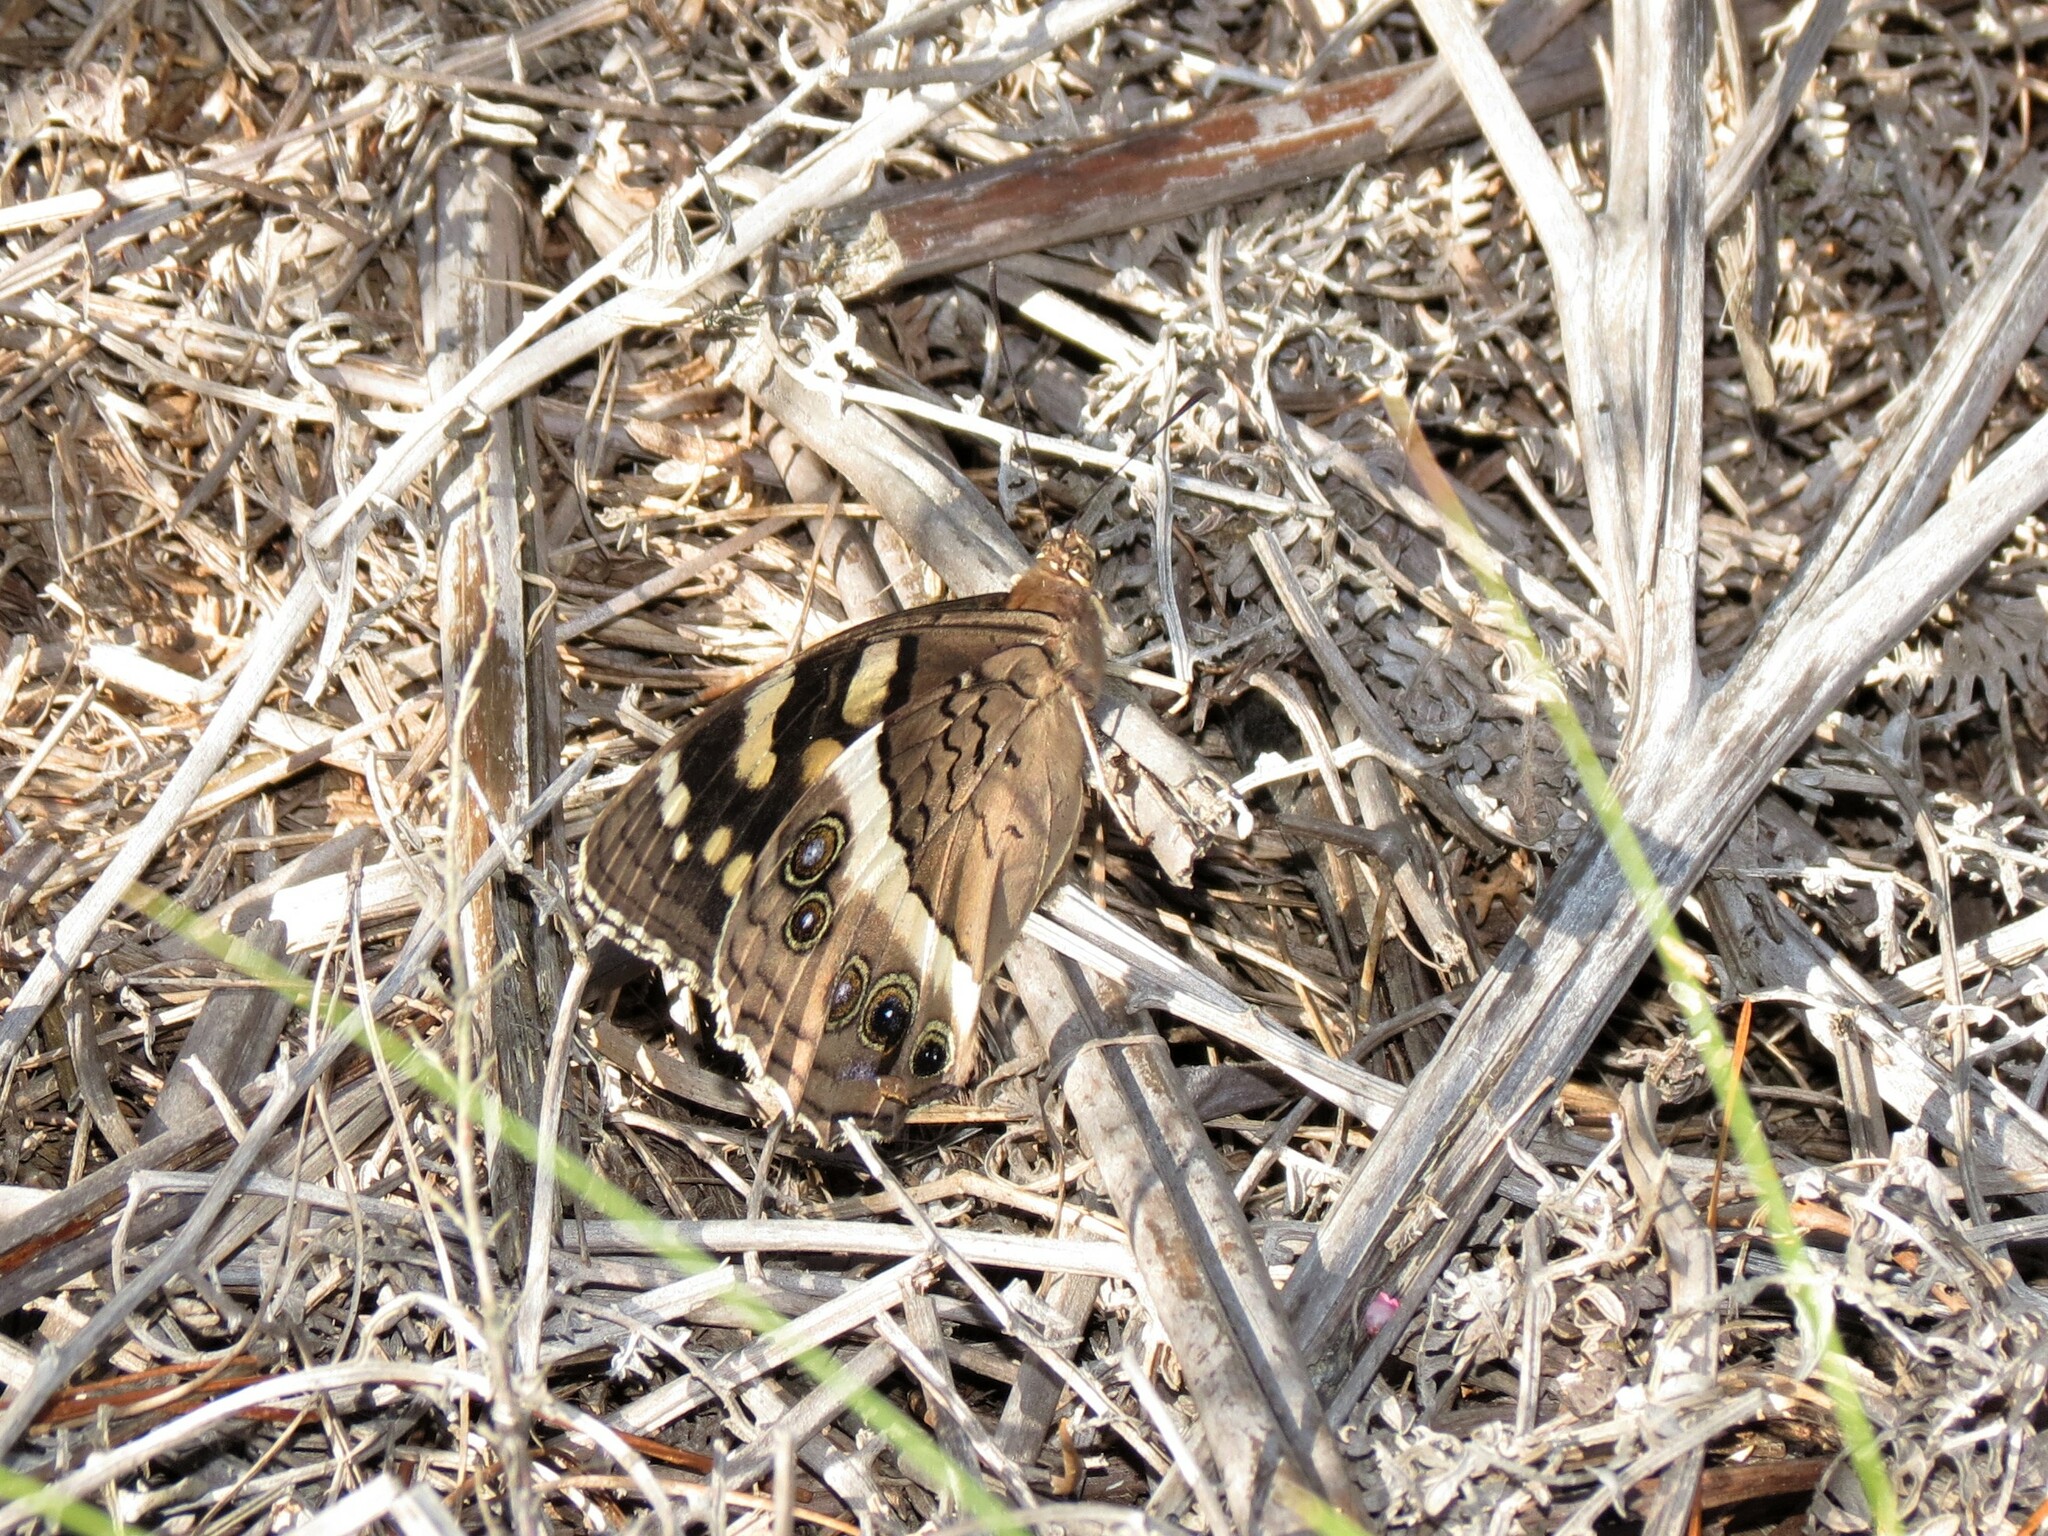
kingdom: Animalia
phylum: Arthropoda
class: Insecta
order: Lepidoptera
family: Nymphalidae
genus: Meneris
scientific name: Meneris Aeropetes tulbaghia
